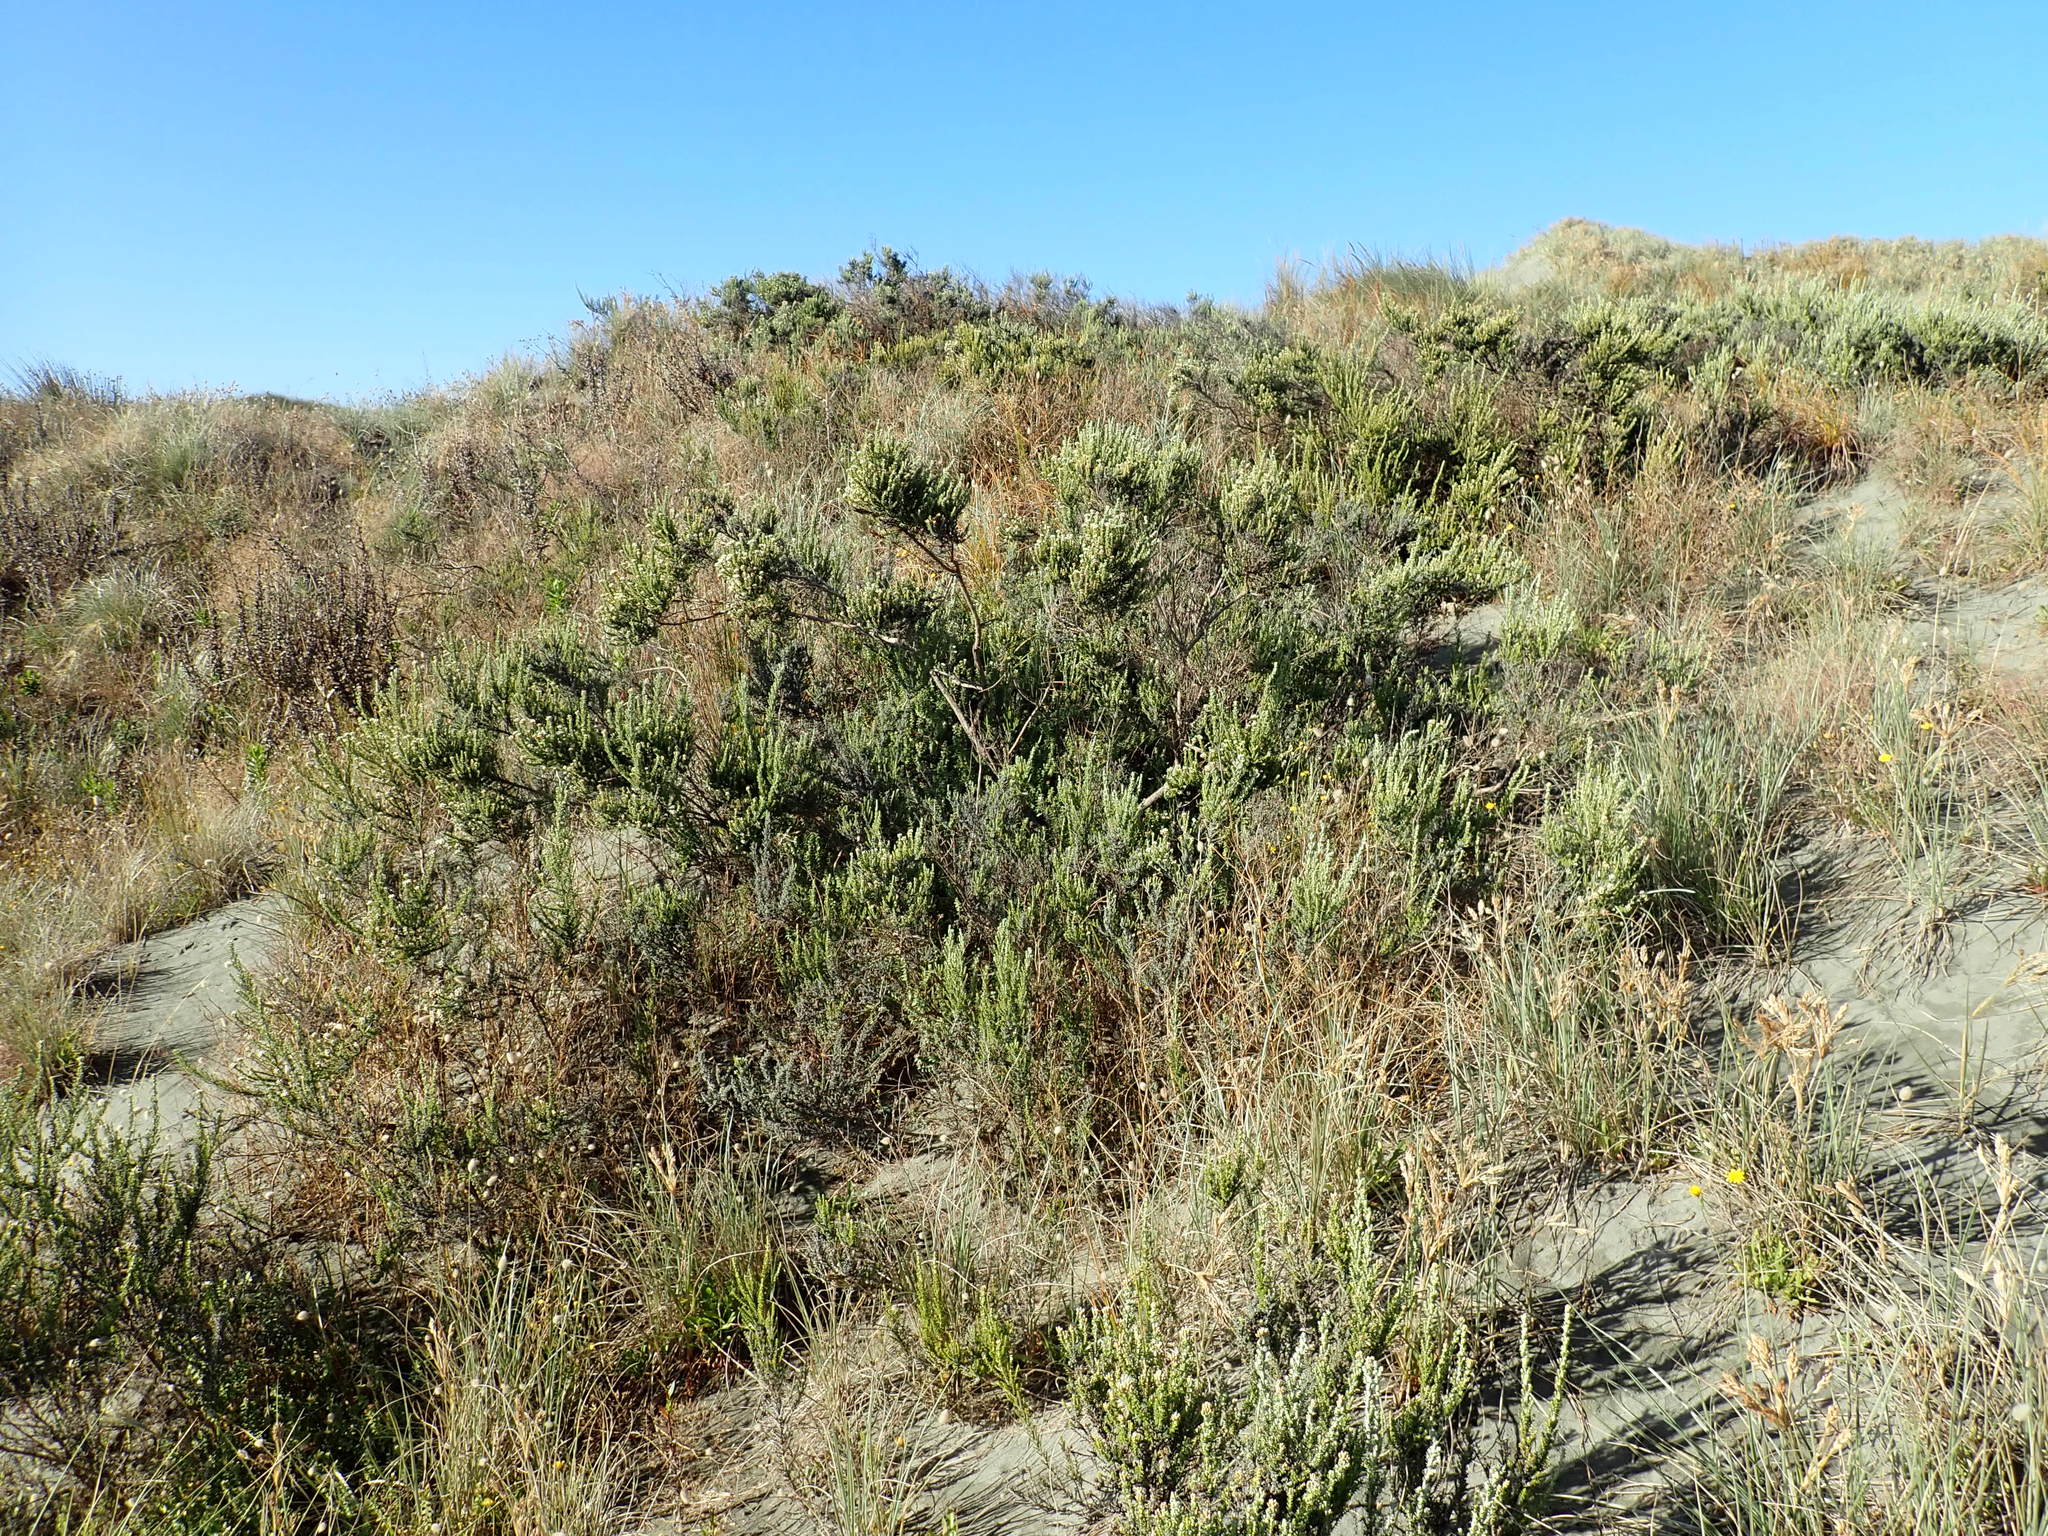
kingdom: Plantae
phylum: Tracheophyta
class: Magnoliopsida
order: Asterales
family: Asteraceae
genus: Ozothamnus
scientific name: Ozothamnus leptophyllus
